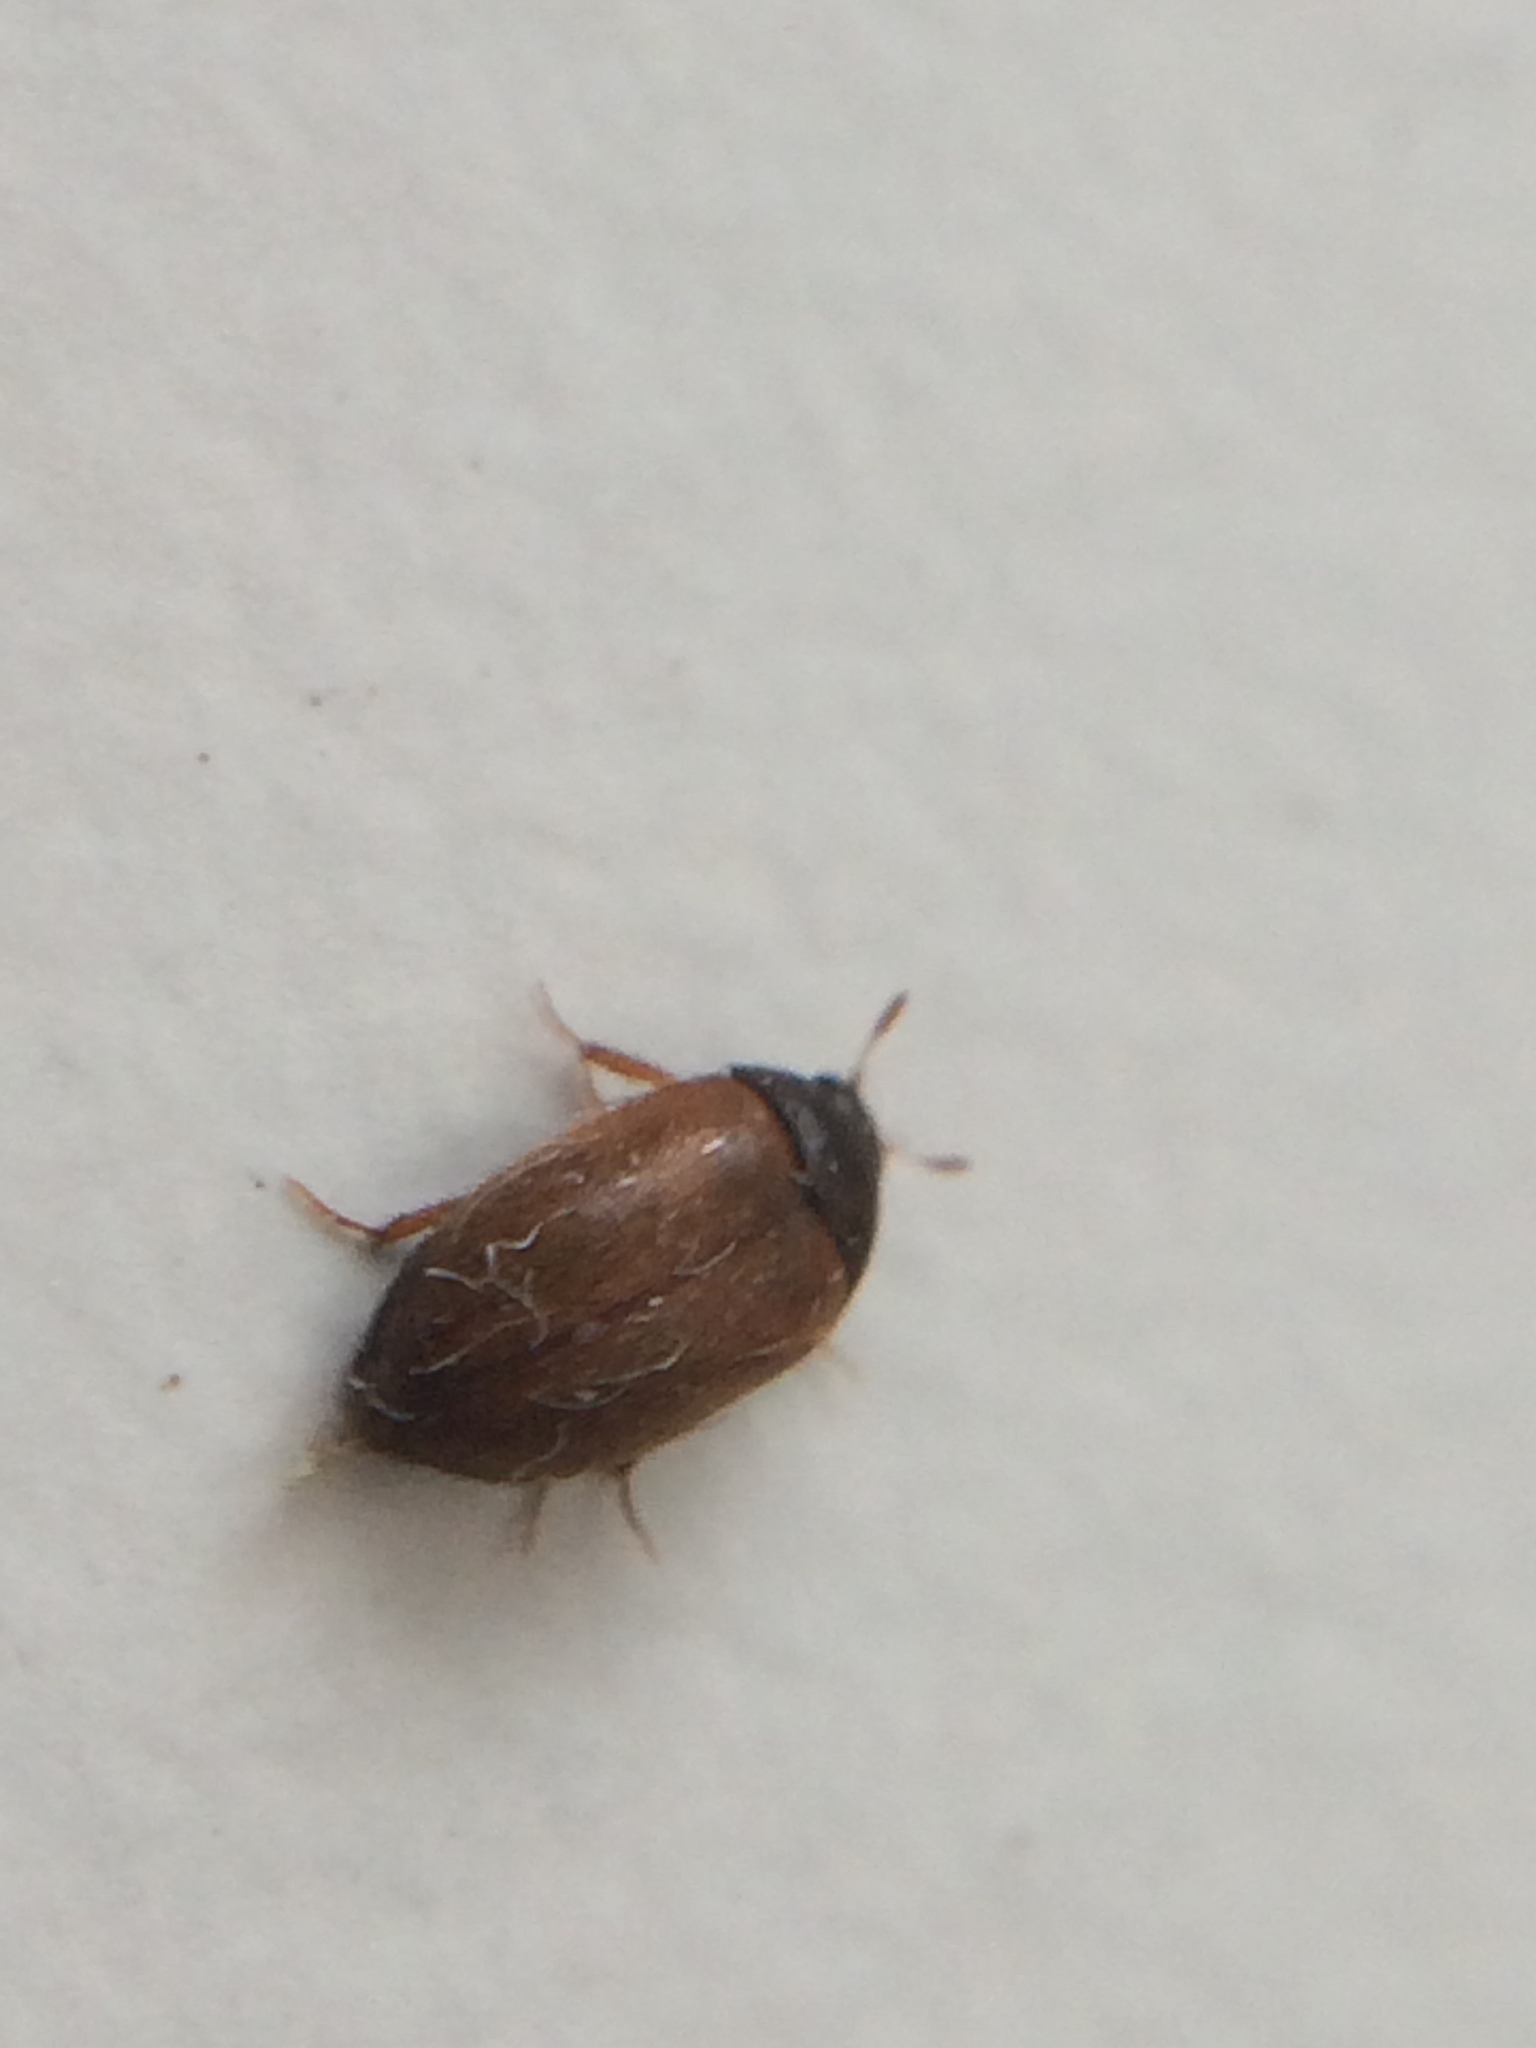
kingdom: Animalia
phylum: Arthropoda
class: Insecta
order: Coleoptera
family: Dermestidae
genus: Attagenus
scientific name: Attagenus smirnovi
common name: Brown carpet beetle
